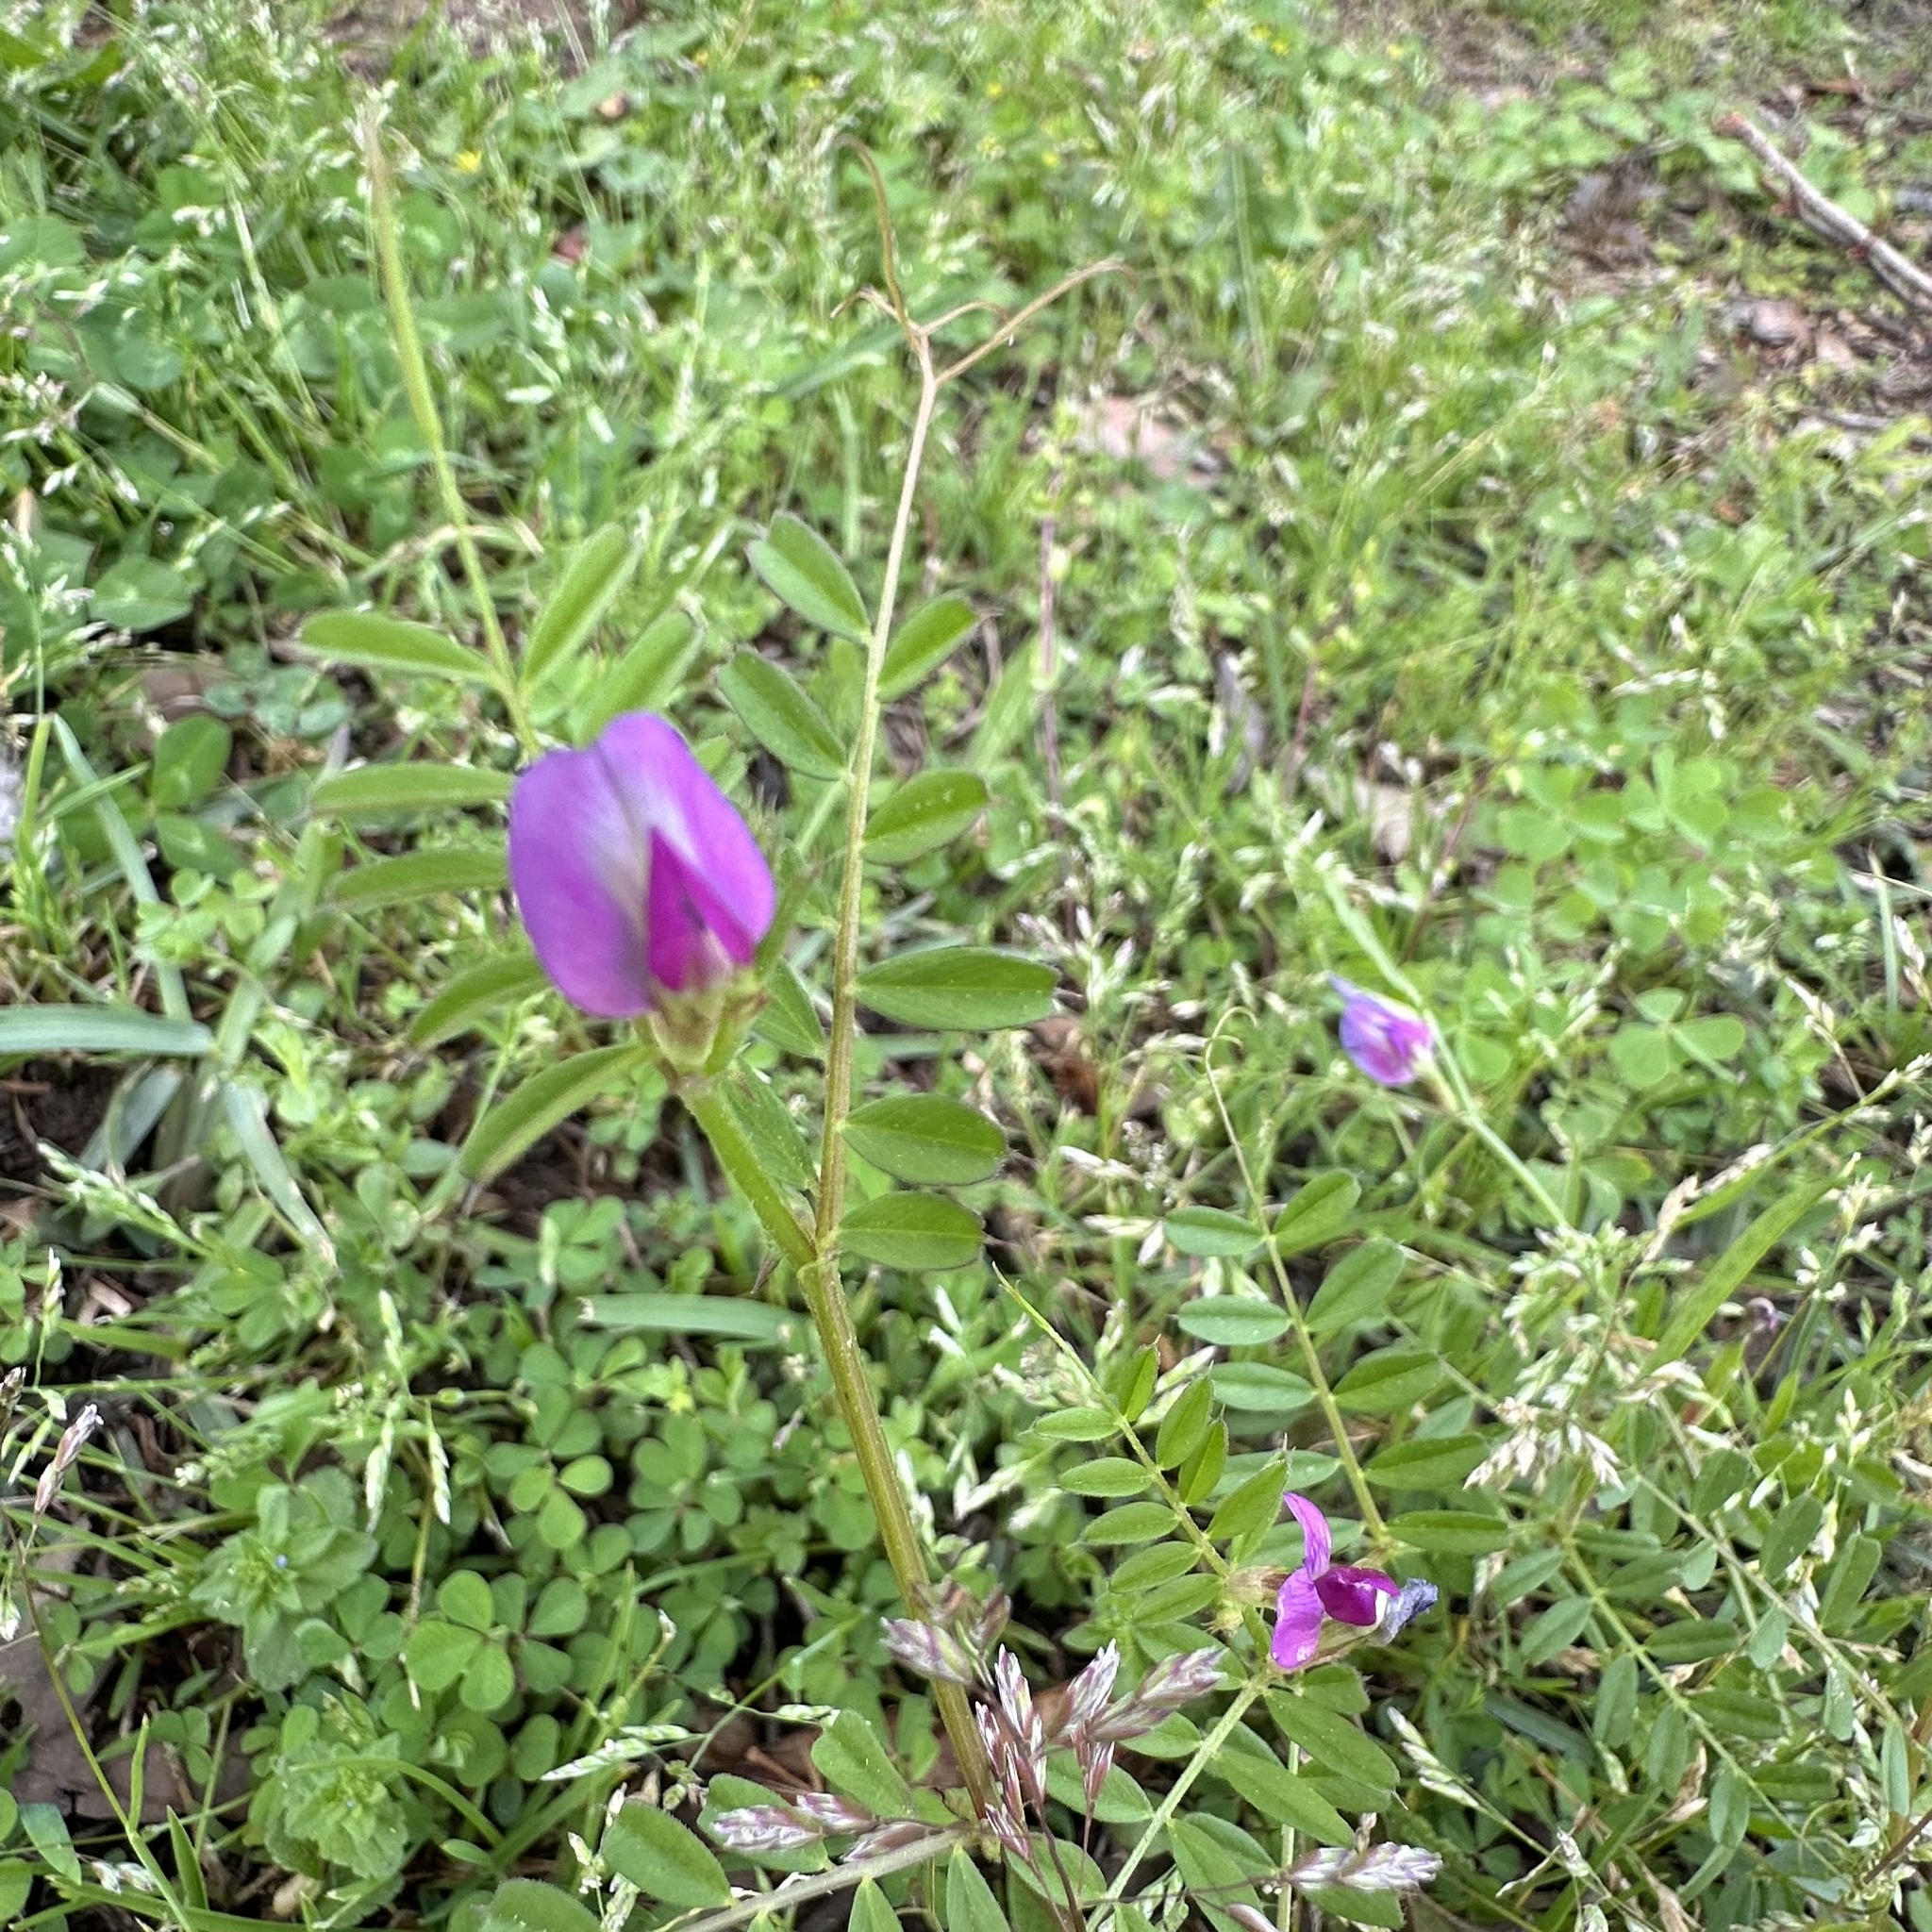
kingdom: Plantae
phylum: Tracheophyta
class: Magnoliopsida
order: Fabales
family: Fabaceae
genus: Vicia
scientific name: Vicia sativa
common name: Garden vetch
